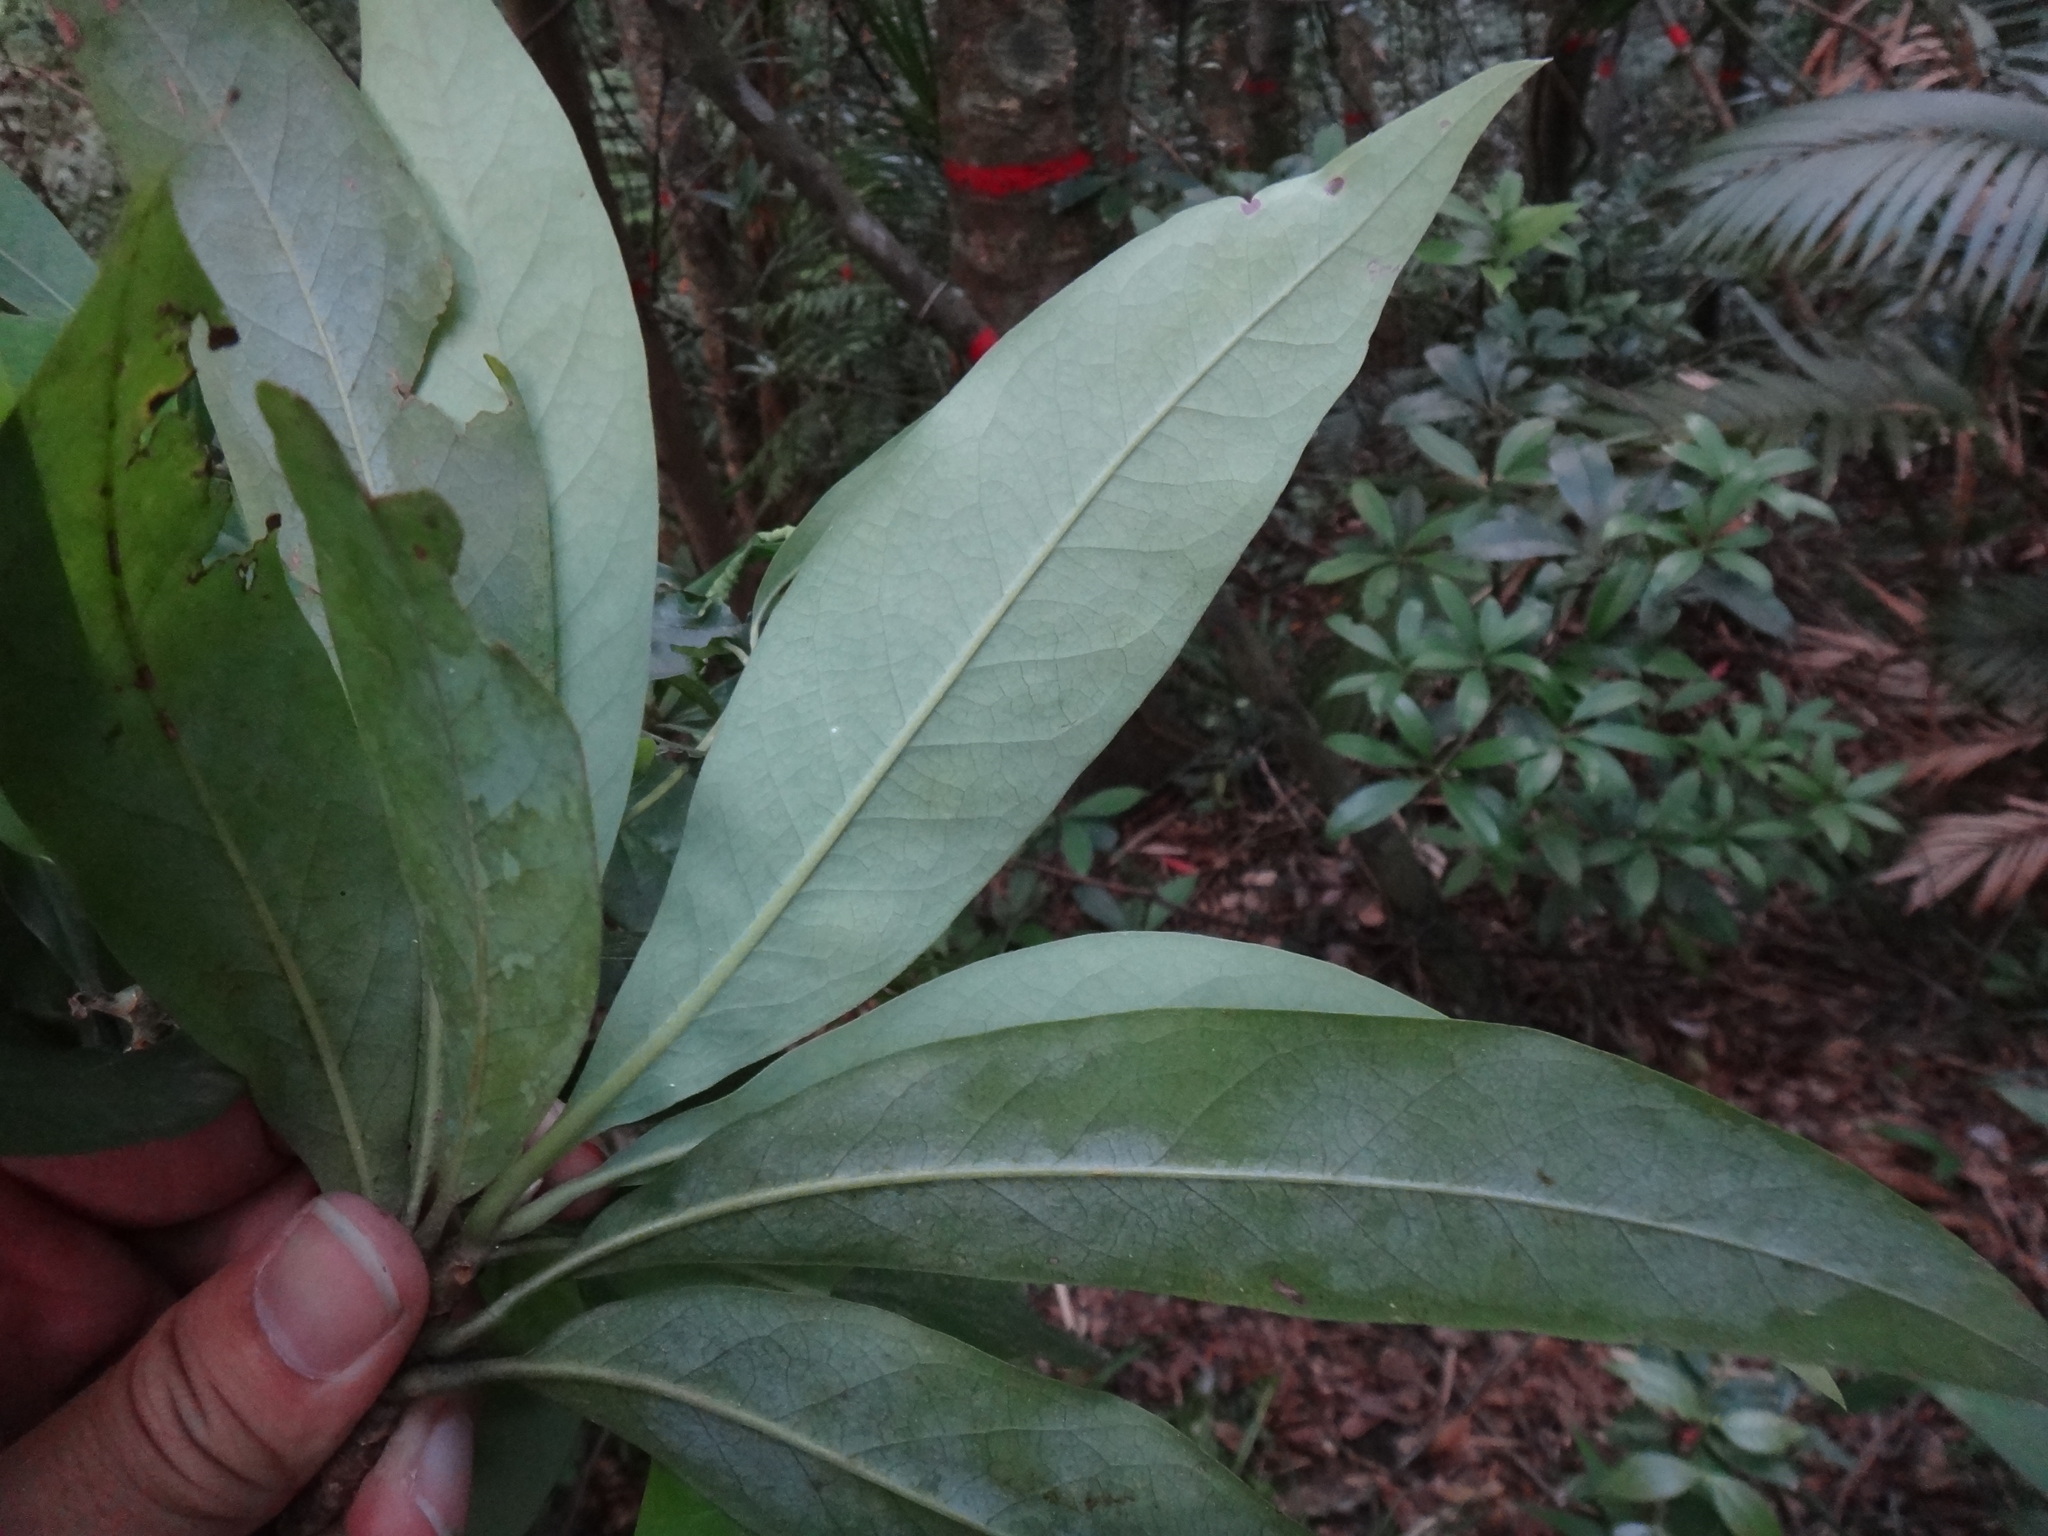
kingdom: Plantae
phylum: Tracheophyta
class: Magnoliopsida
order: Ericales
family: Theaceae
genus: Schima
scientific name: Schima superba
